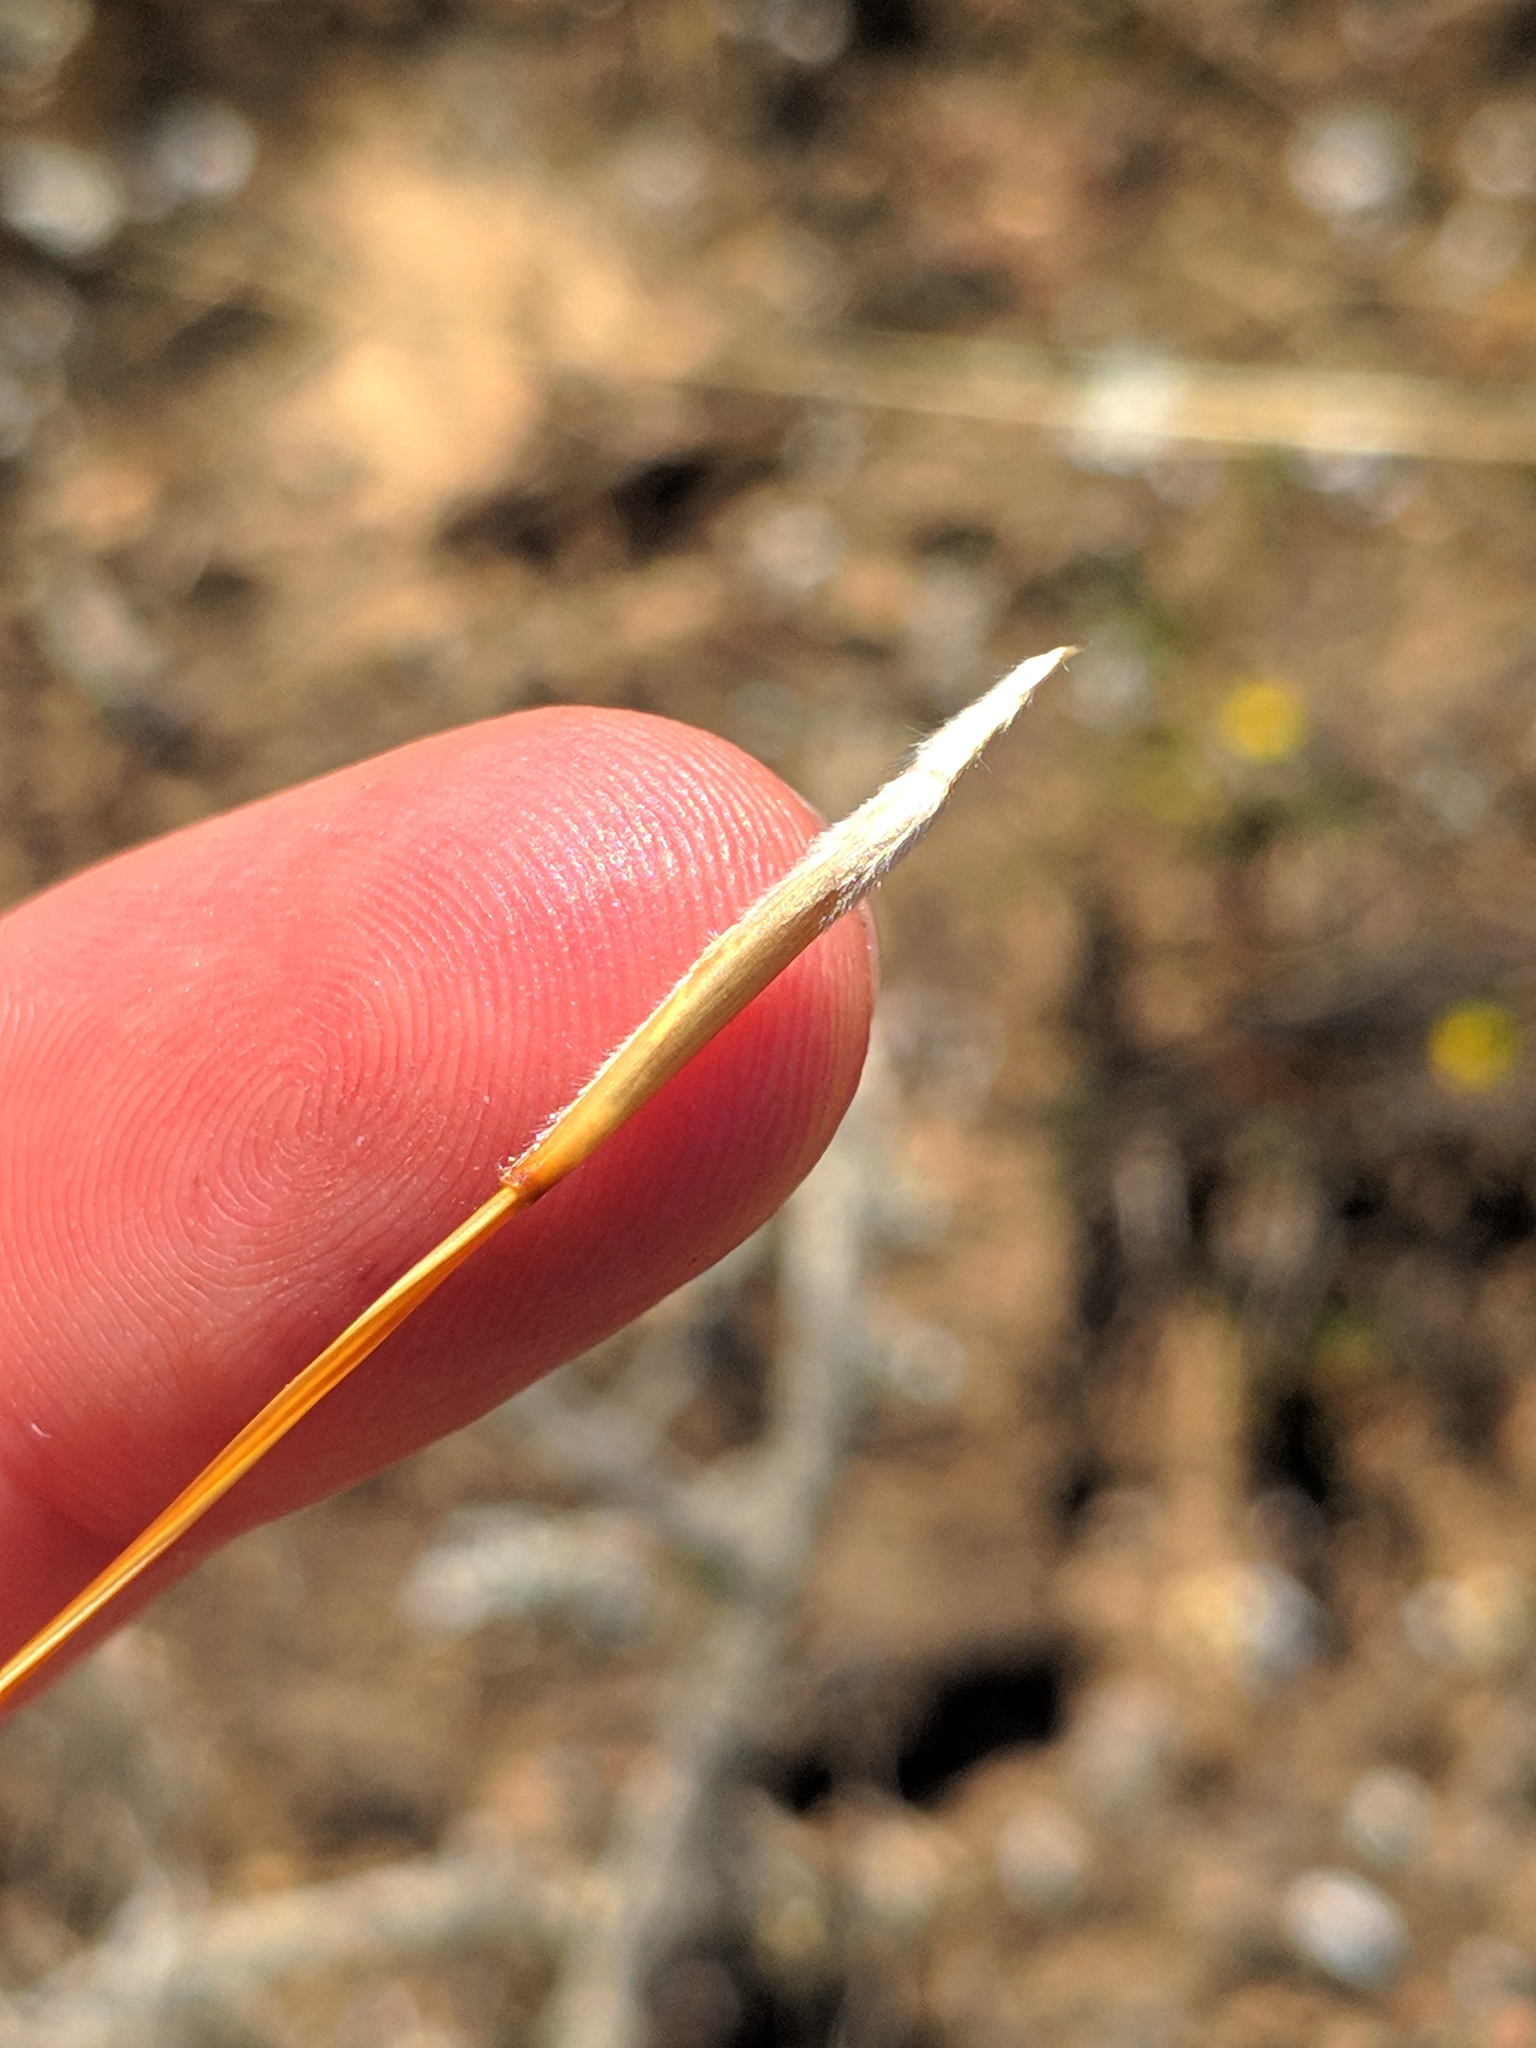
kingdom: Plantae
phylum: Tracheophyta
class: Liliopsida
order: Poales
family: Poaceae
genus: Stipa
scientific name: Stipa iberica
